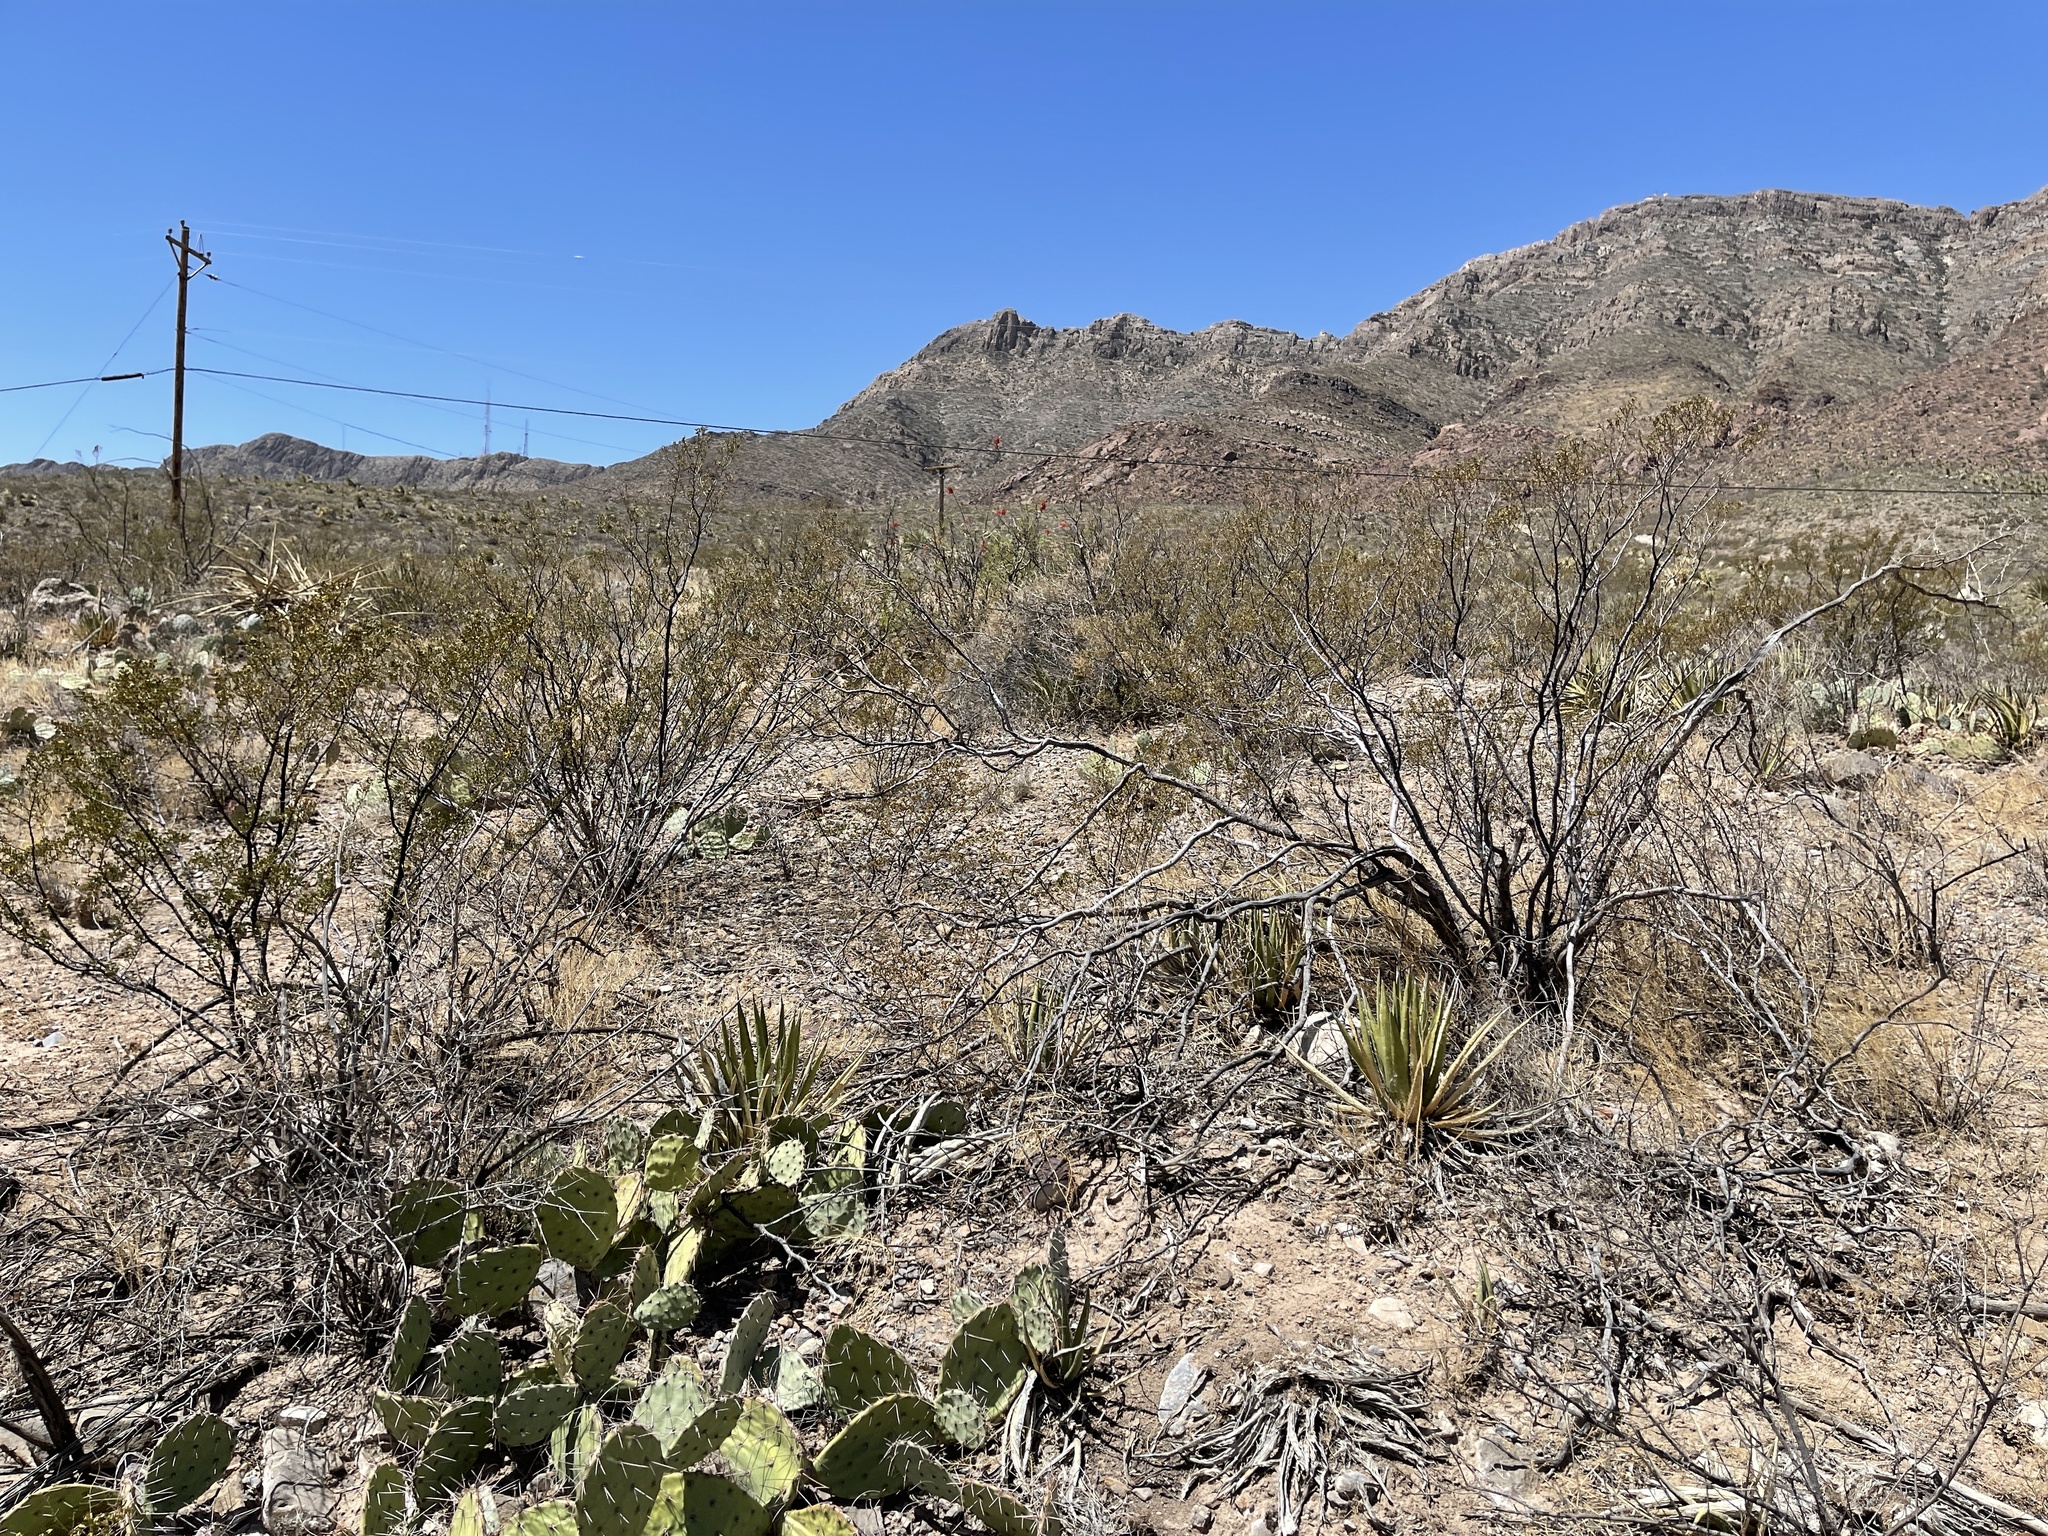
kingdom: Plantae
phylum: Tracheophyta
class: Magnoliopsida
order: Zygophyllales
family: Zygophyllaceae
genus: Larrea
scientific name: Larrea tridentata
